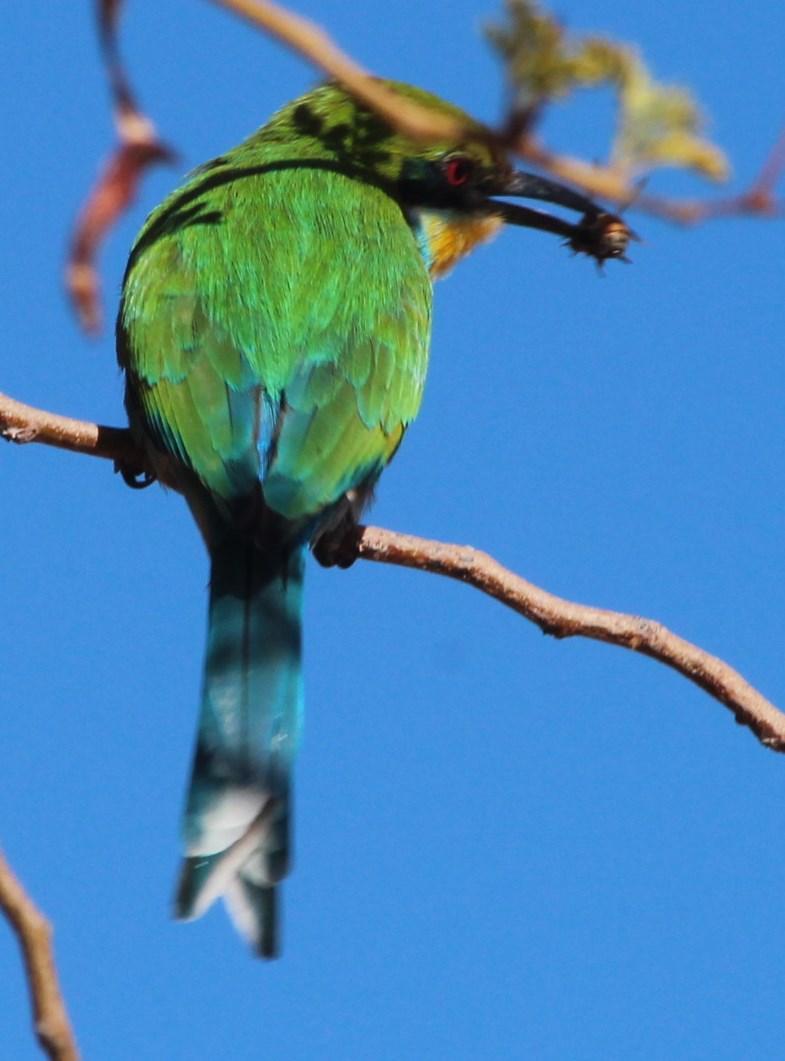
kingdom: Animalia
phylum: Arthropoda
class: Insecta
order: Hymenoptera
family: Apidae
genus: Apis
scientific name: Apis mellifera
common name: Honey bee
